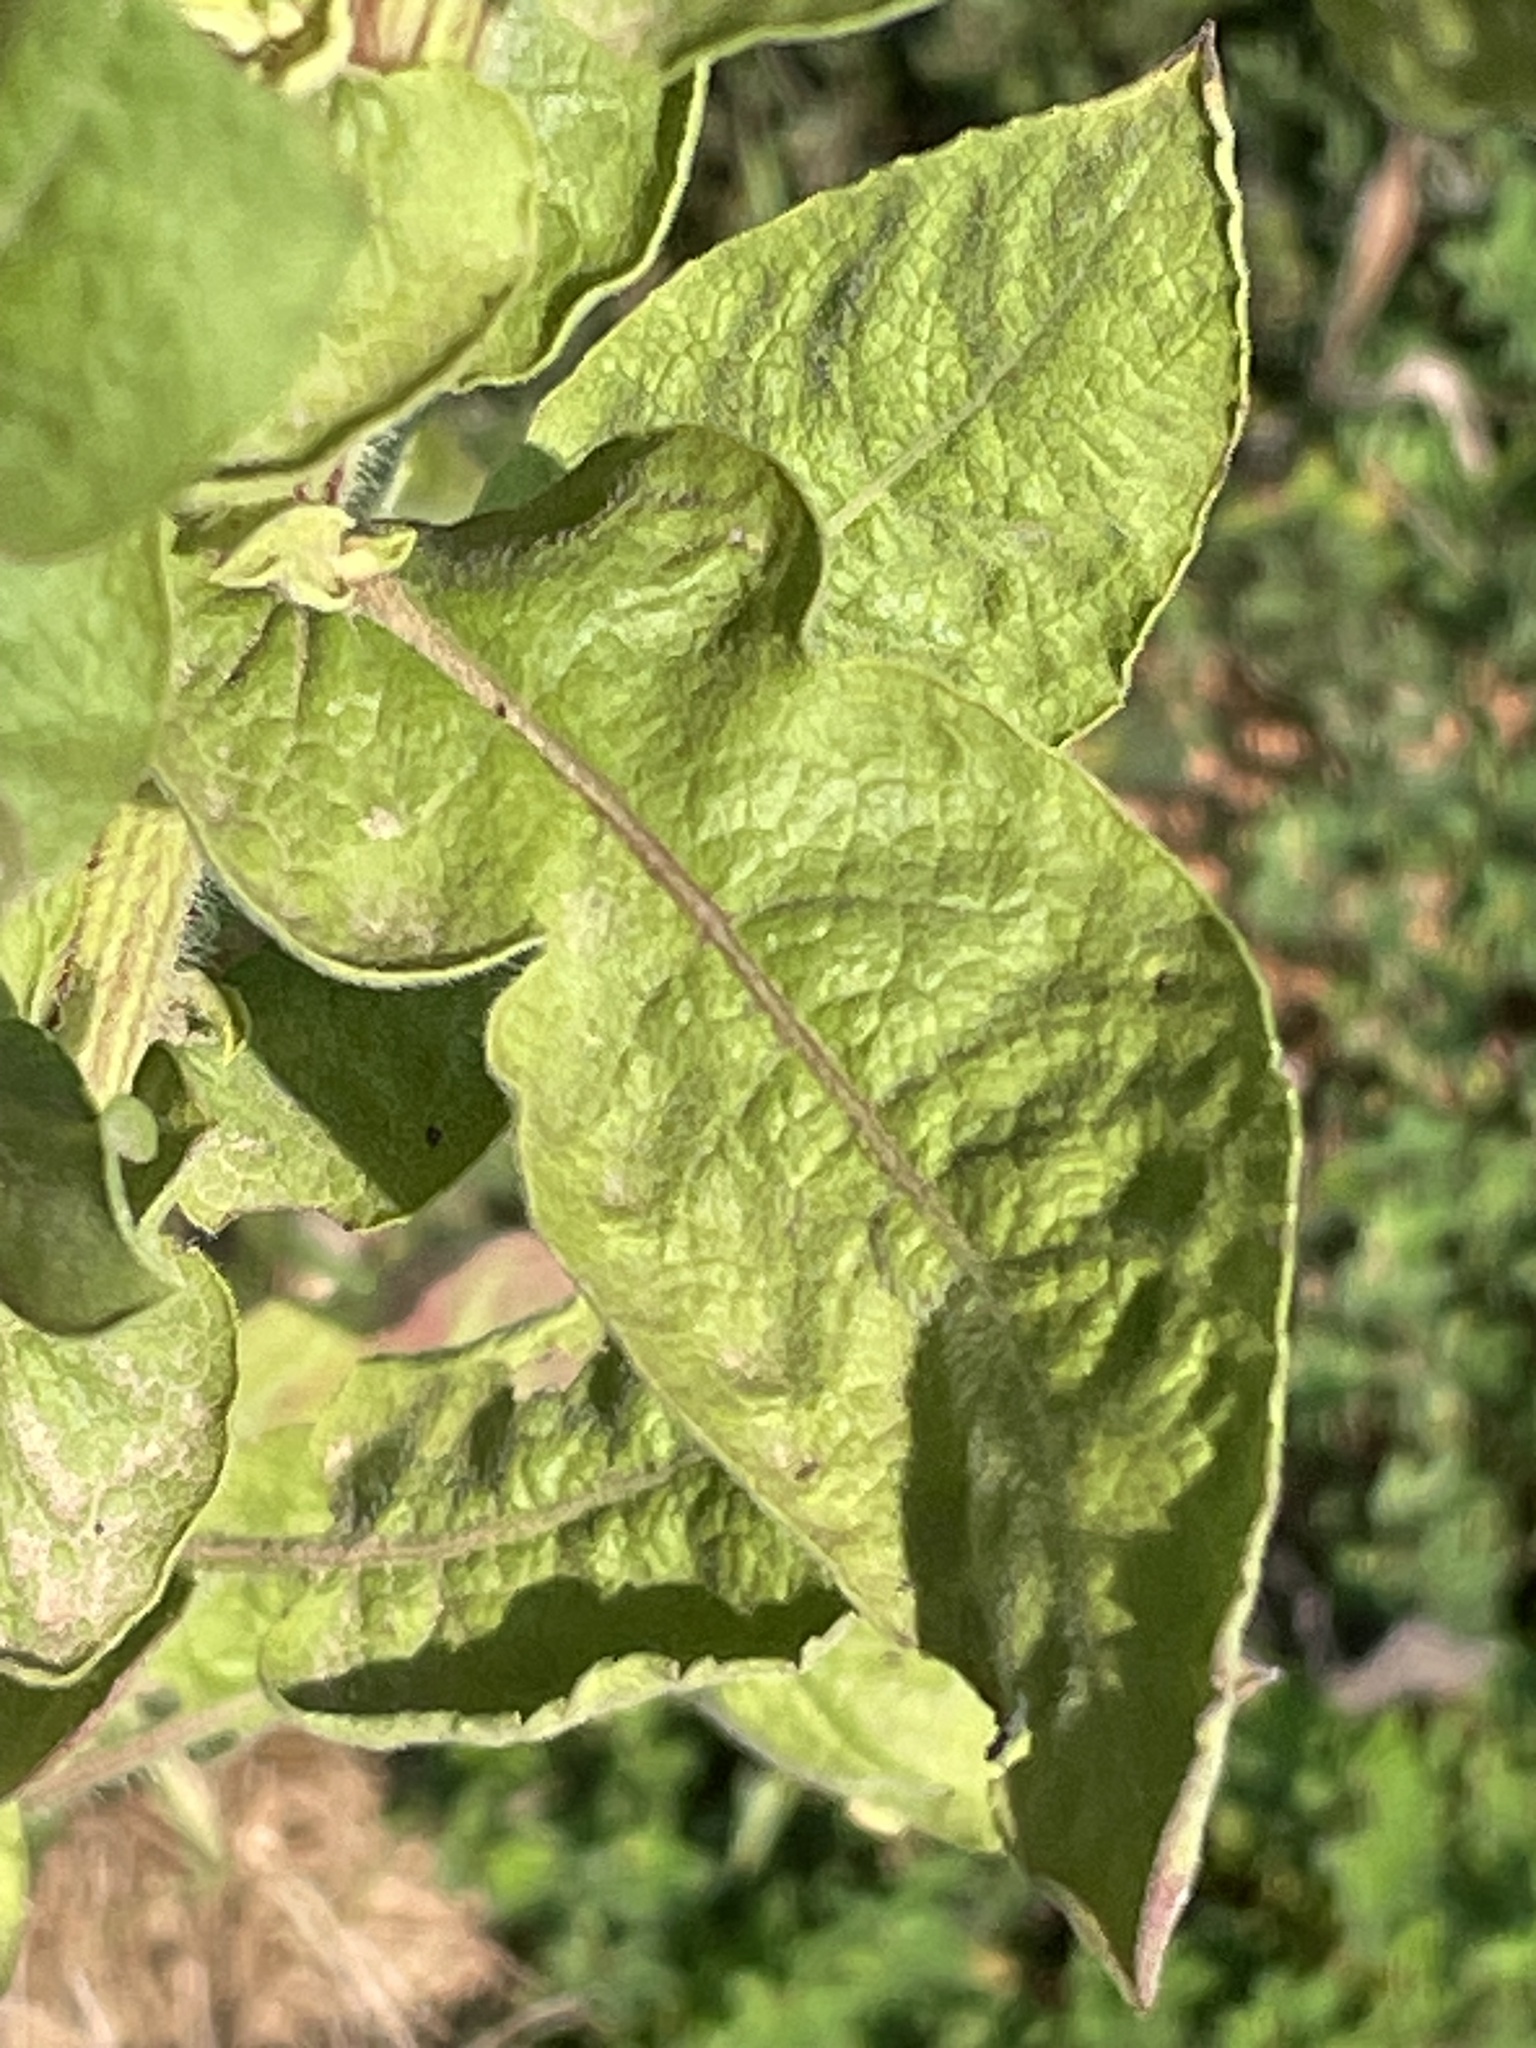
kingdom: Plantae
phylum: Tracheophyta
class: Magnoliopsida
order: Asterales
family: Asteraceae
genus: Heterotheca
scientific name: Heterotheca subaxillaris
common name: Camphorweed
